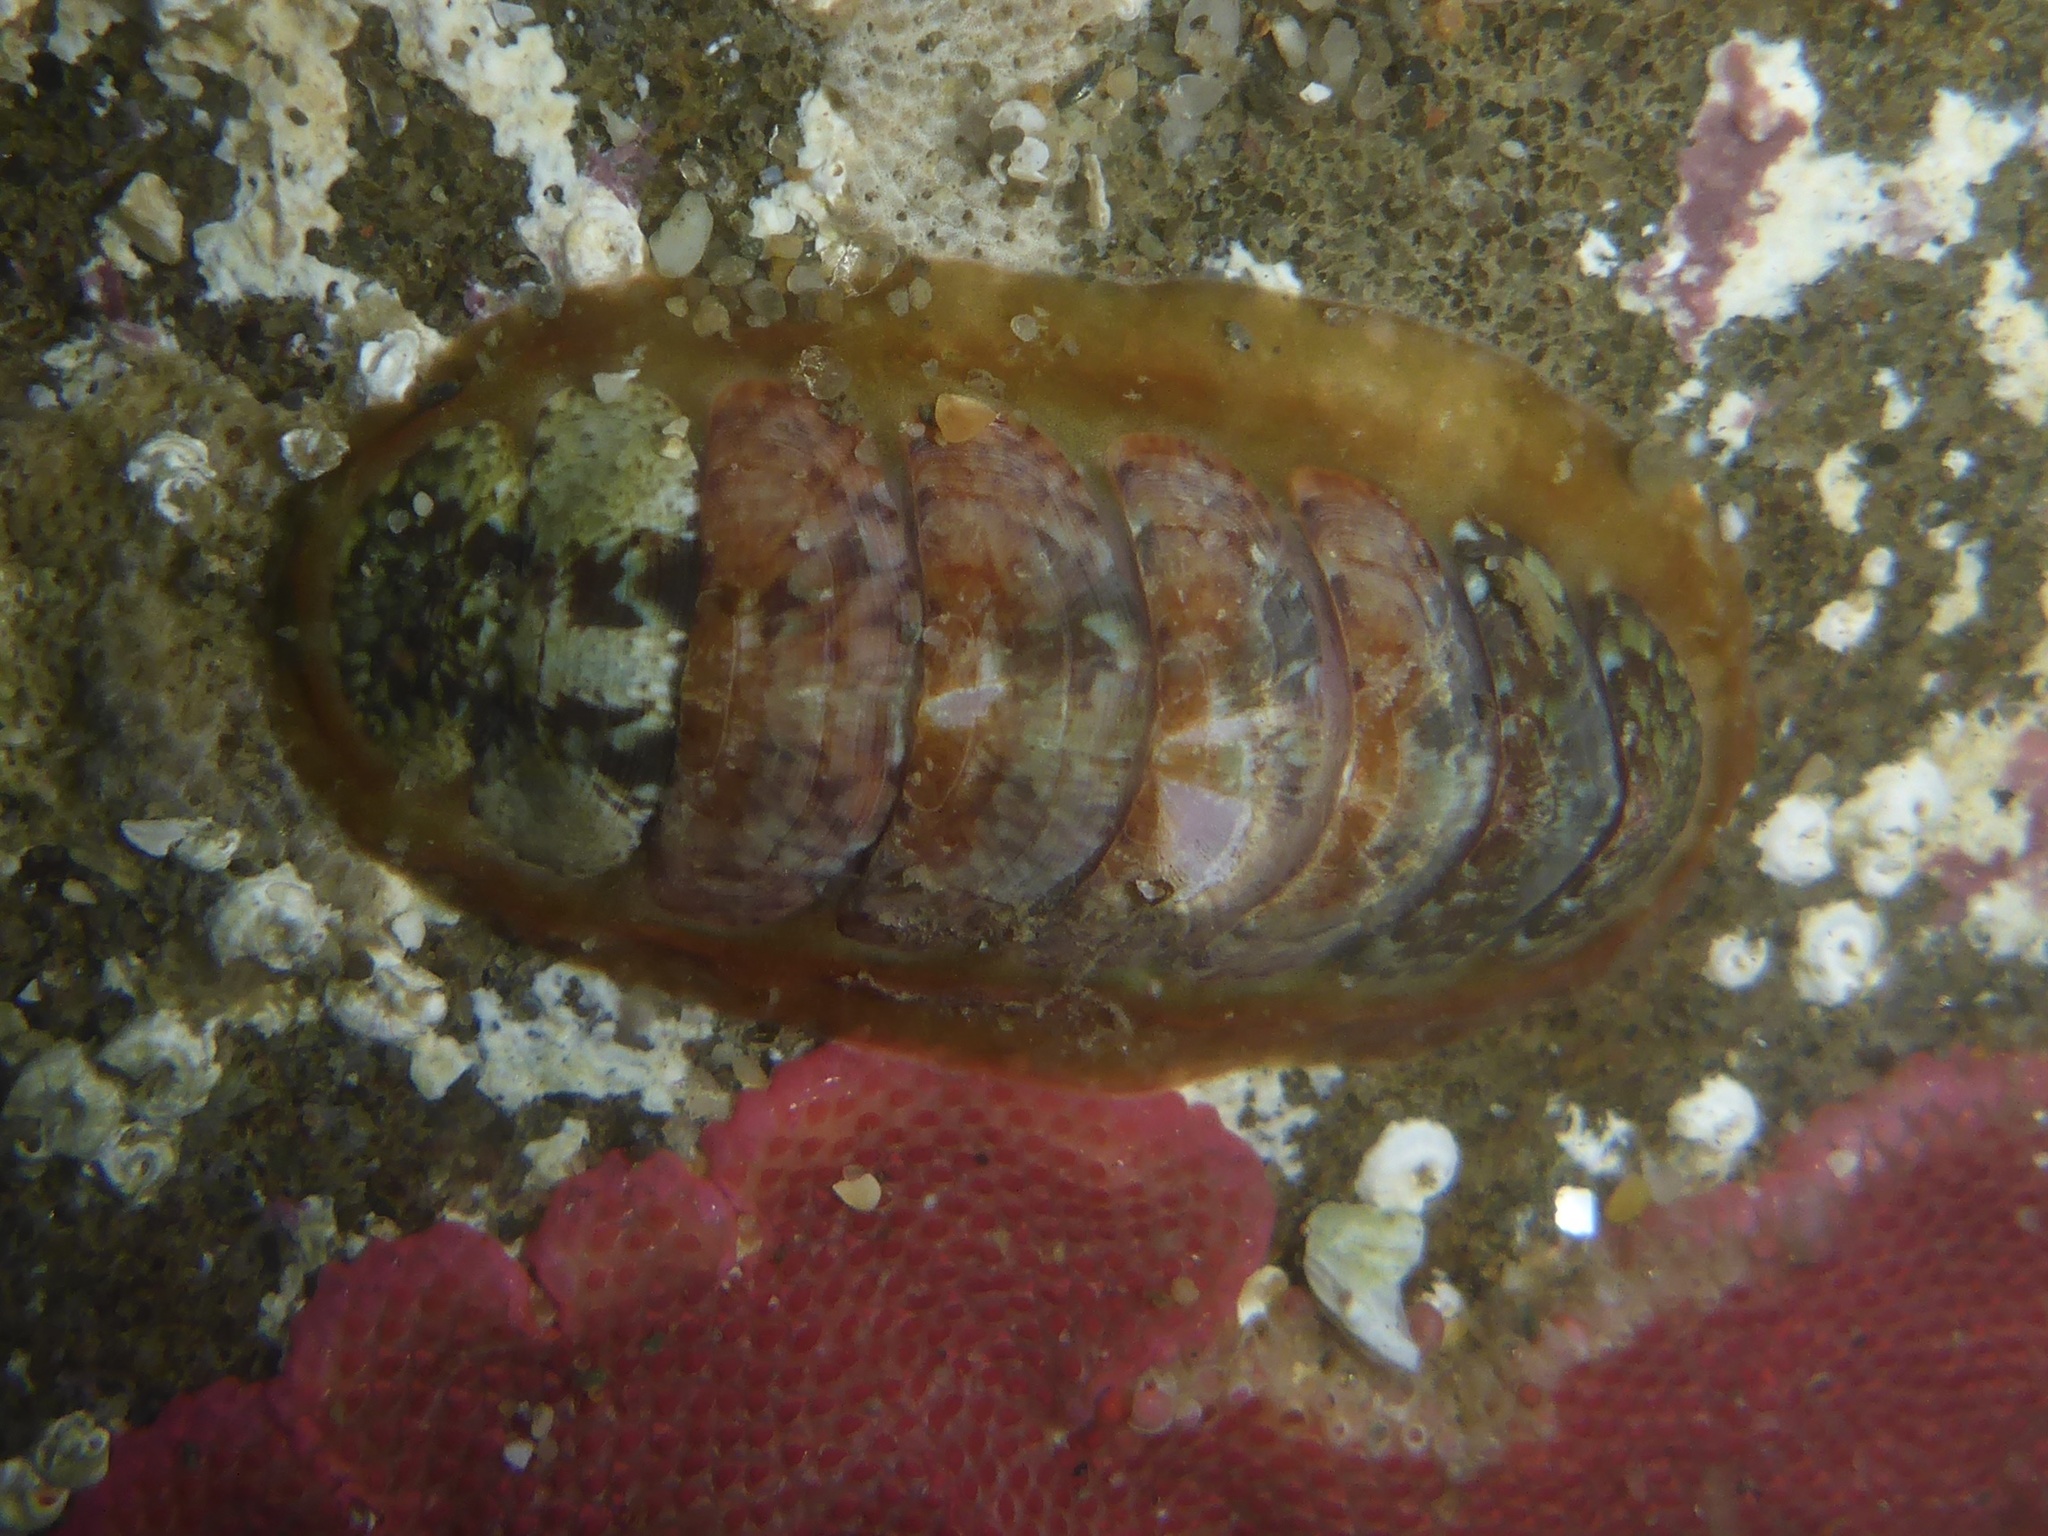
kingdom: Animalia
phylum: Mollusca
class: Polyplacophora
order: Chitonida
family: Mopaliidae
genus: Dendrochiton
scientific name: Dendrochiton flectens
